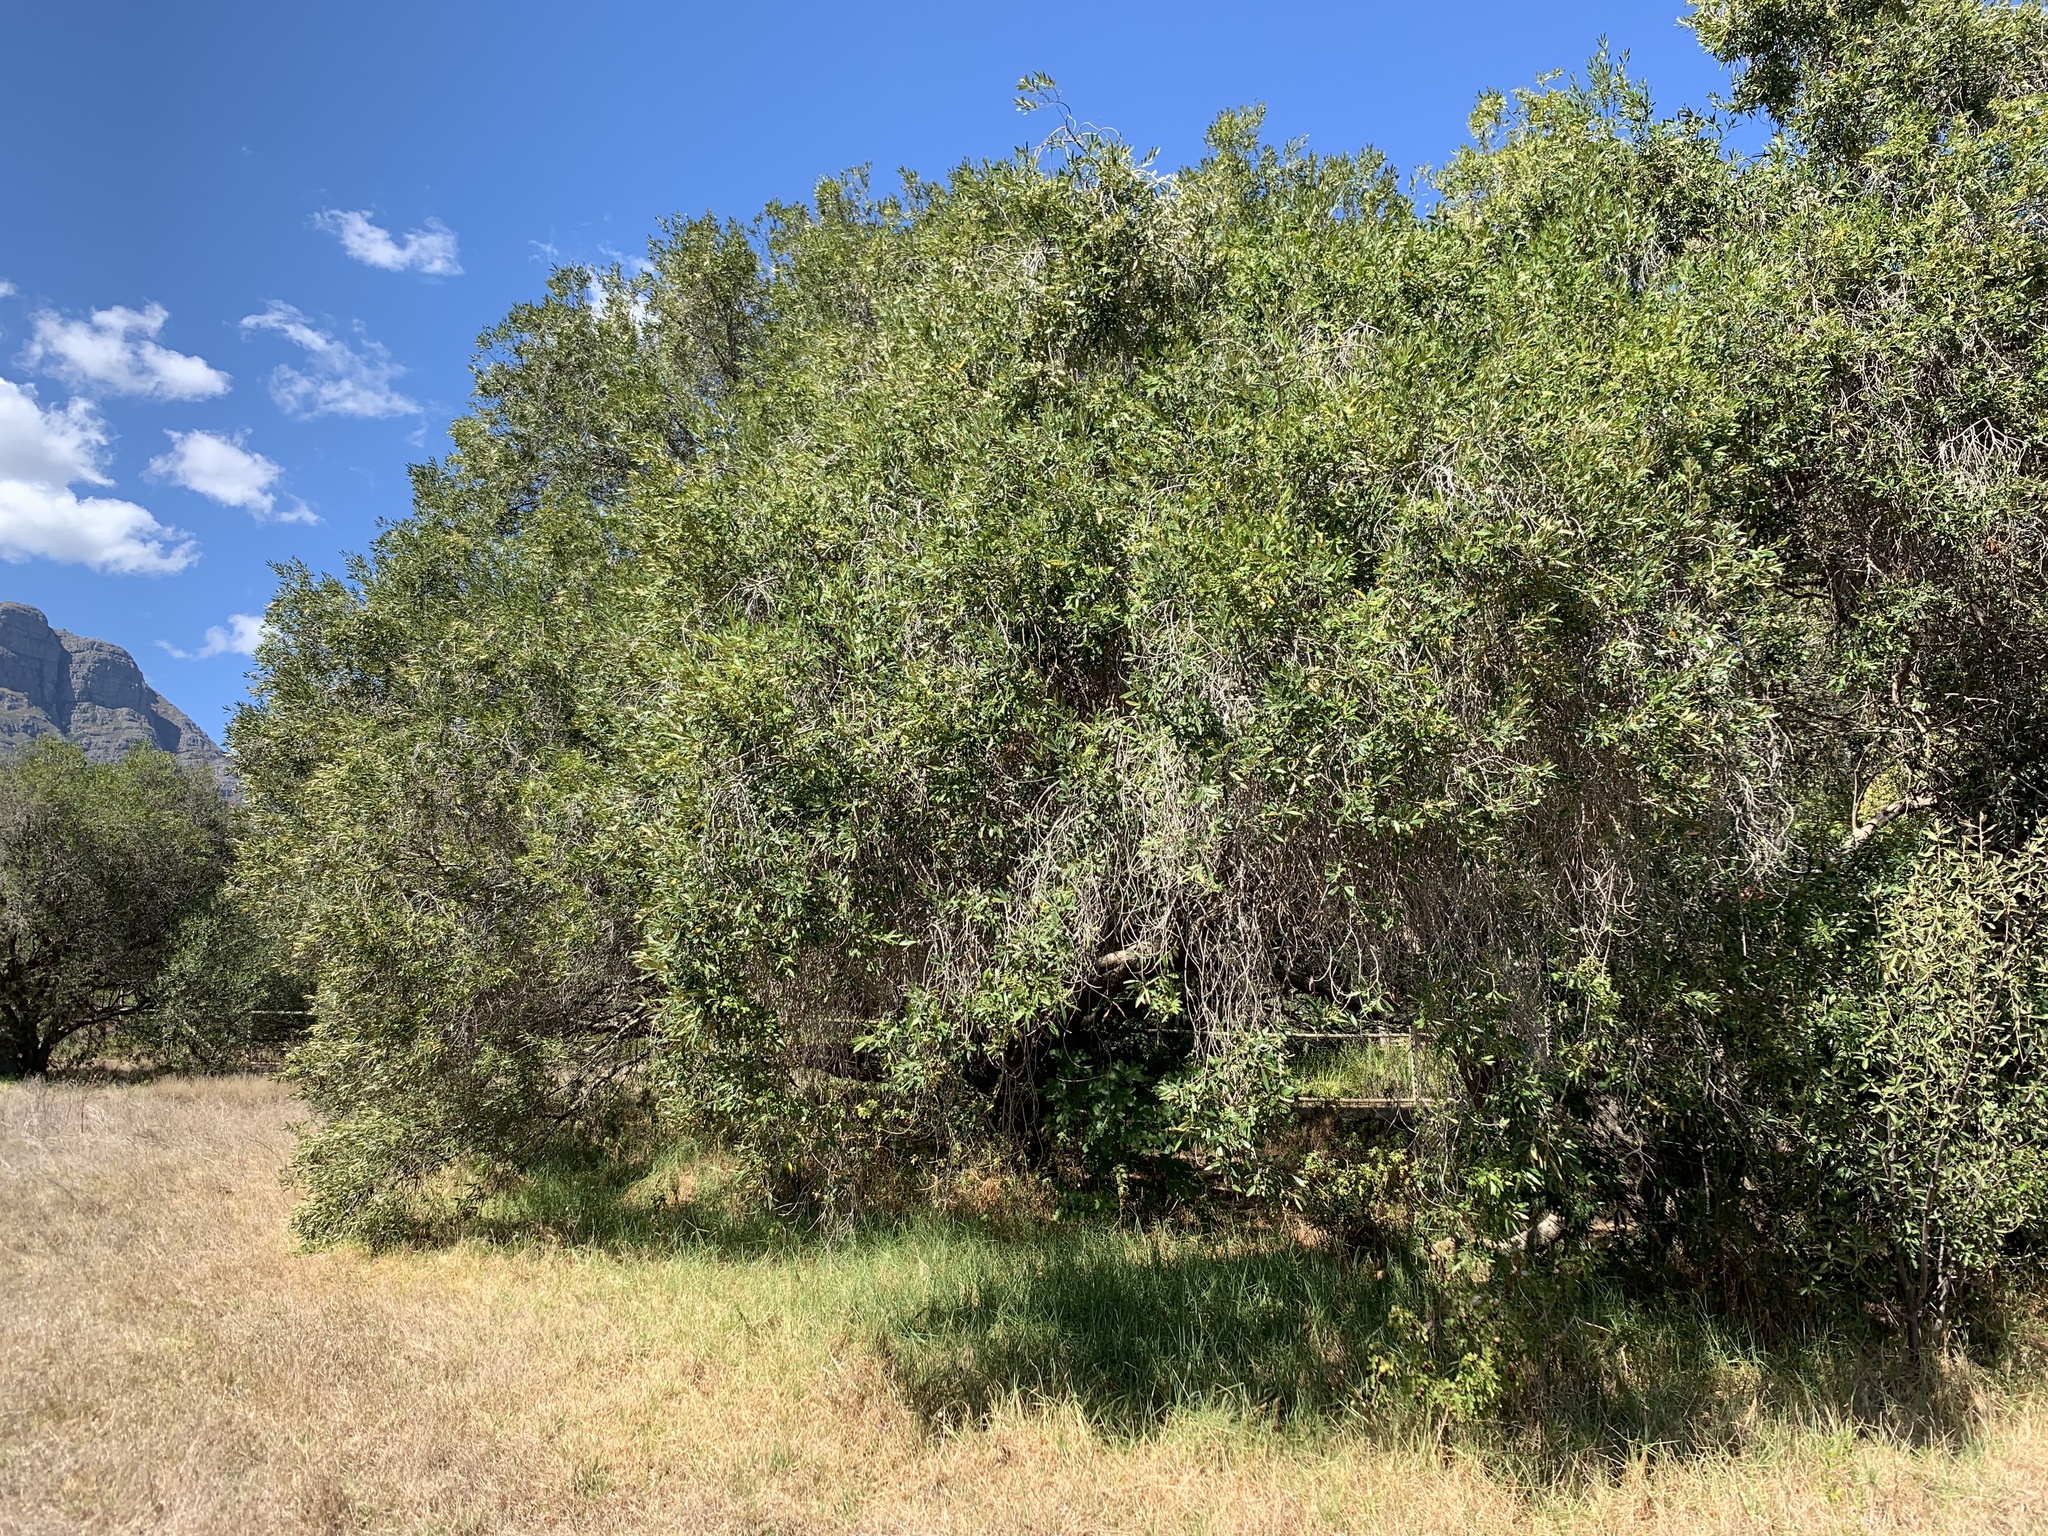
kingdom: Plantae
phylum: Tracheophyta
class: Magnoliopsida
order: Lamiales
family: Oleaceae
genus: Olea
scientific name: Olea europaea
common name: Olive
